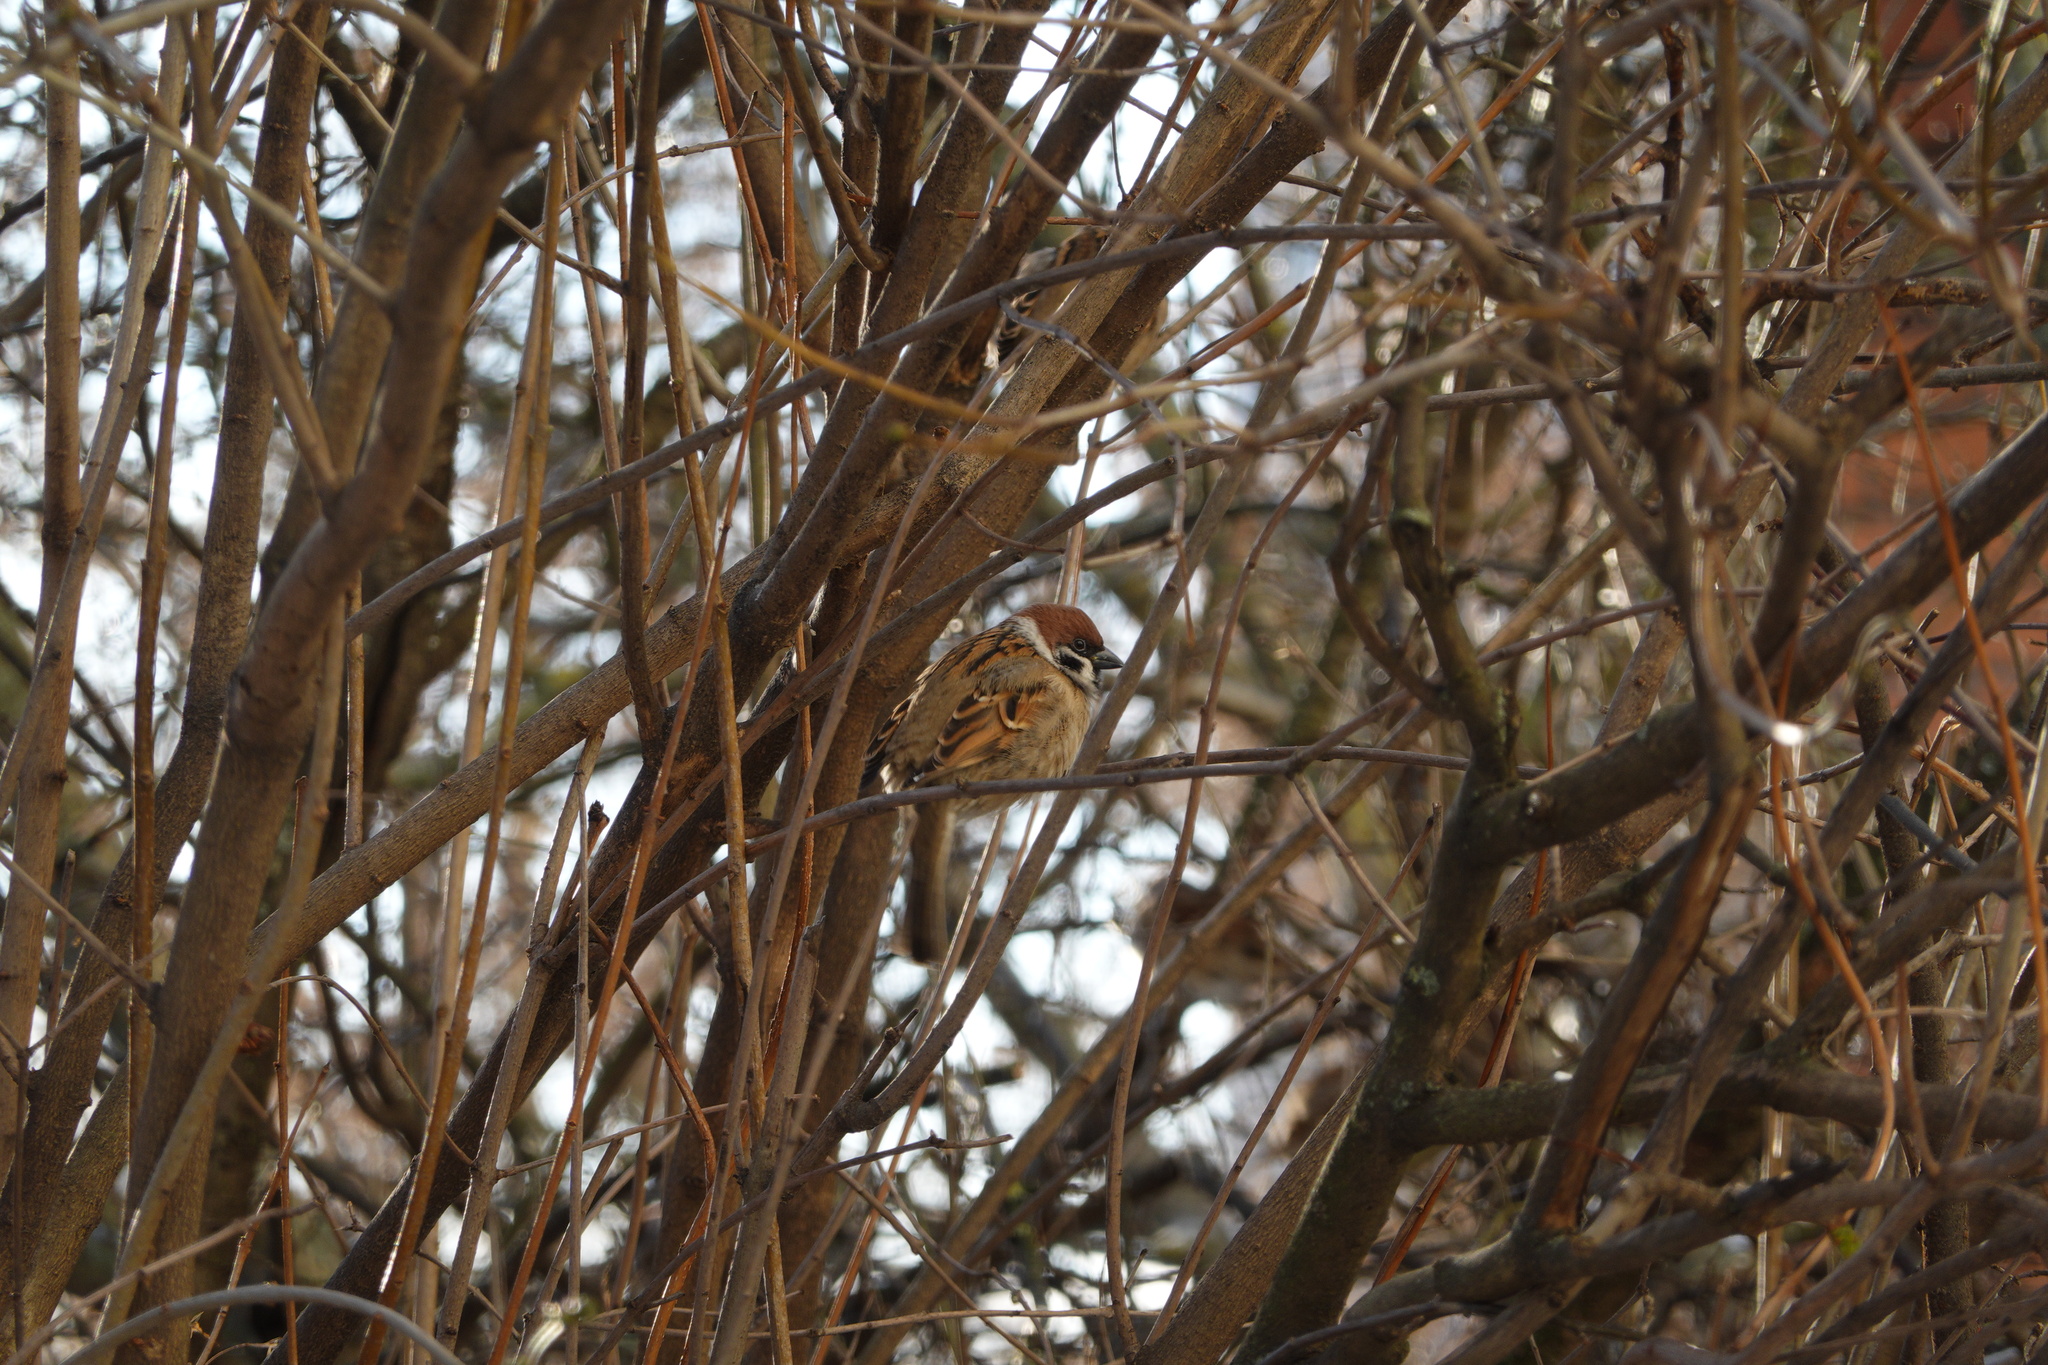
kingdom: Animalia
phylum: Chordata
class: Aves
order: Passeriformes
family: Passeridae
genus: Passer
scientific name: Passer montanus
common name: Eurasian tree sparrow
